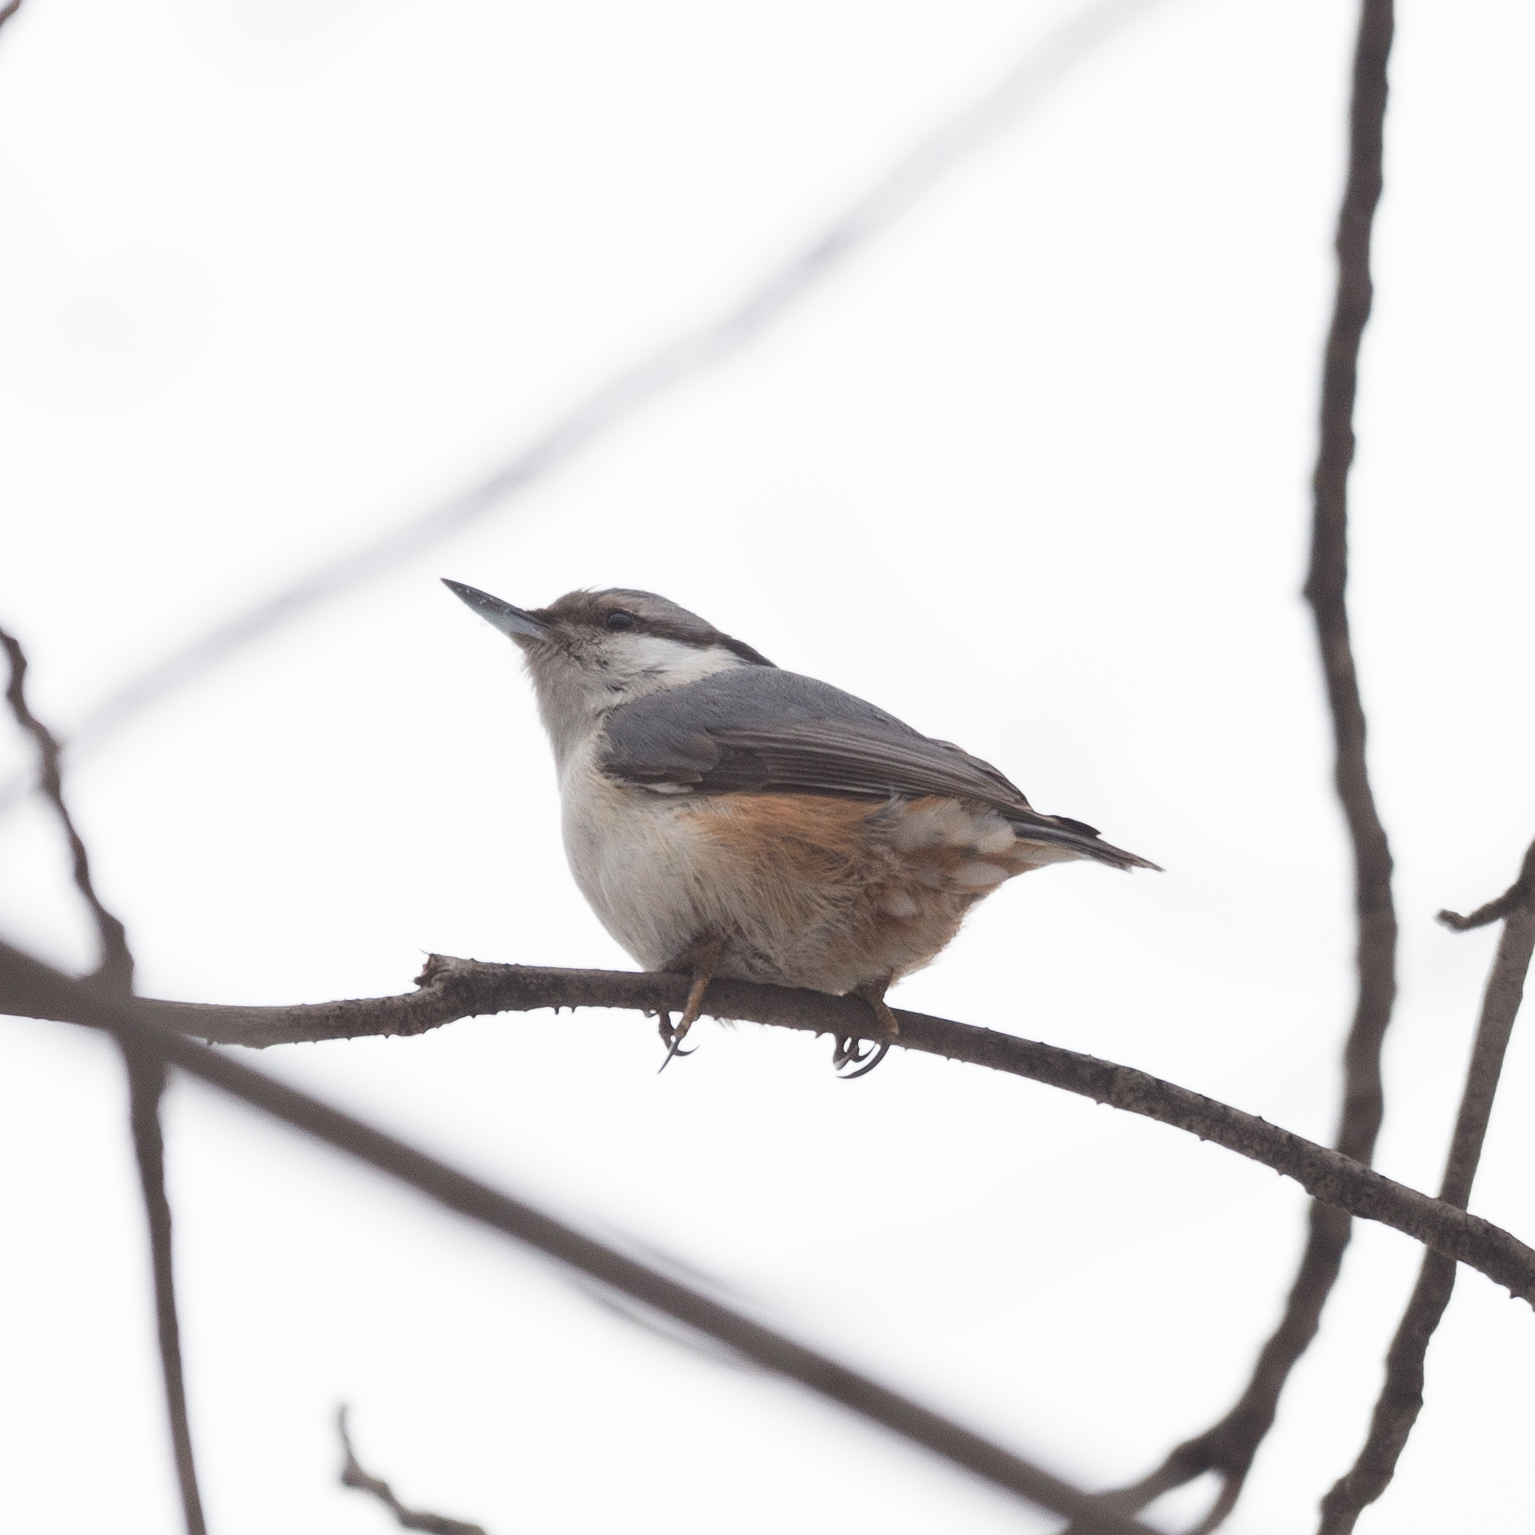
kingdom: Animalia
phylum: Chordata
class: Aves
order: Passeriformes
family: Sittidae
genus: Sitta
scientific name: Sitta europaea
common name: Eurasian nuthatch
